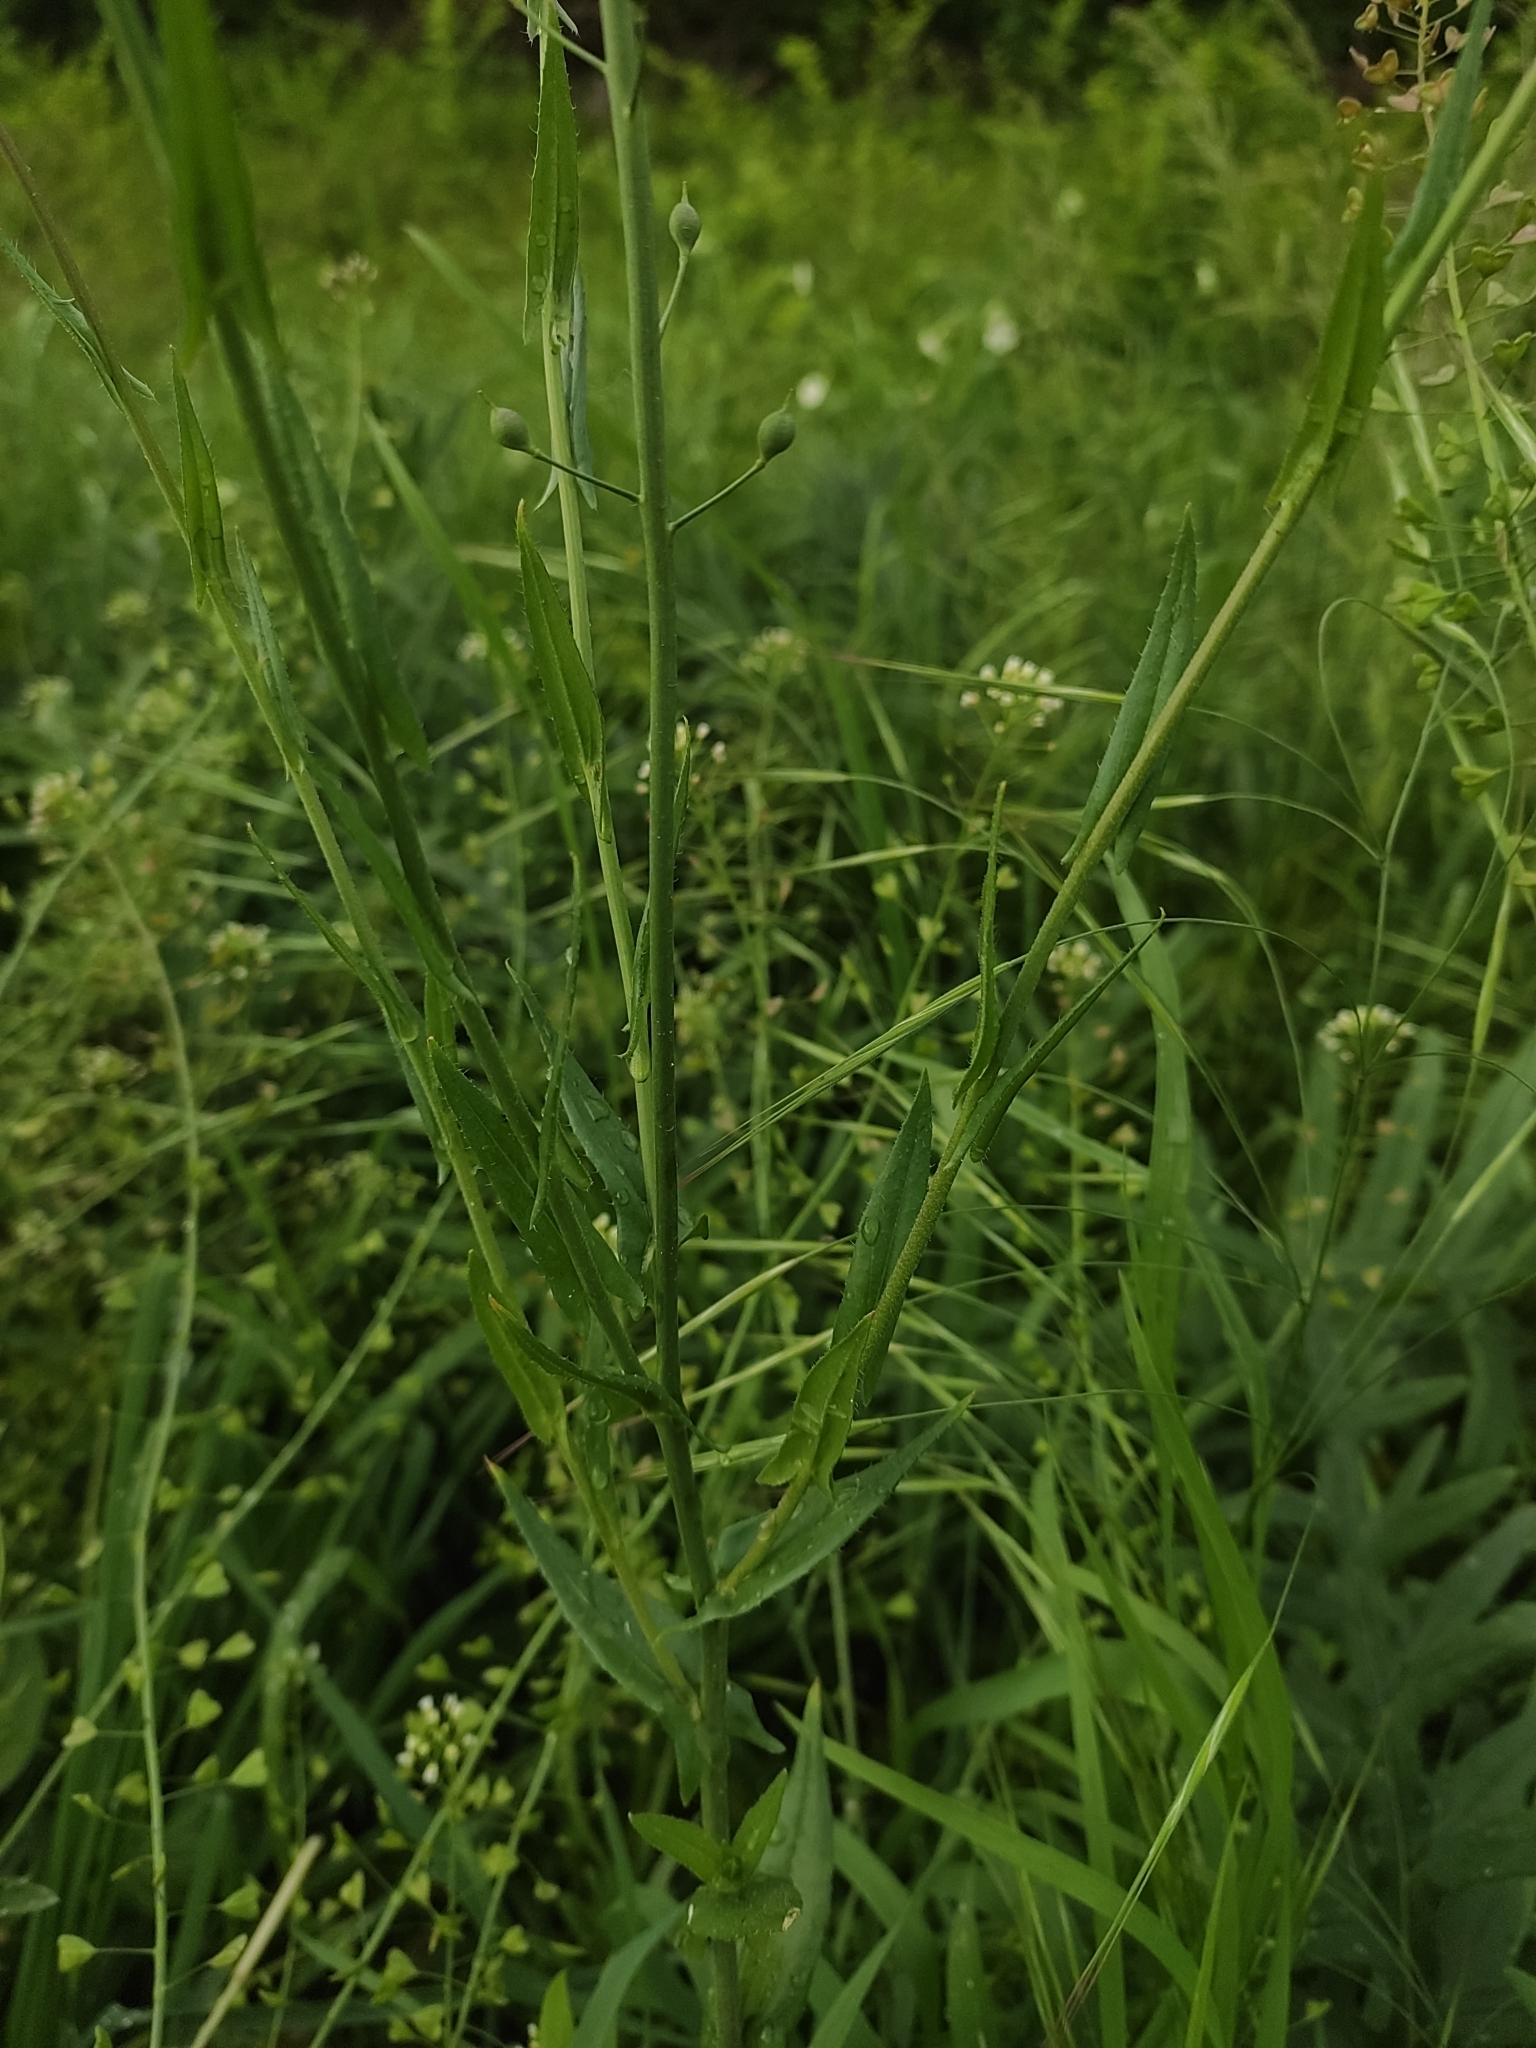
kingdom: Plantae
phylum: Tracheophyta
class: Magnoliopsida
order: Brassicales
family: Brassicaceae
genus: Camelina
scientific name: Camelina microcarpa
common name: Lesser gold-of-pleasure
